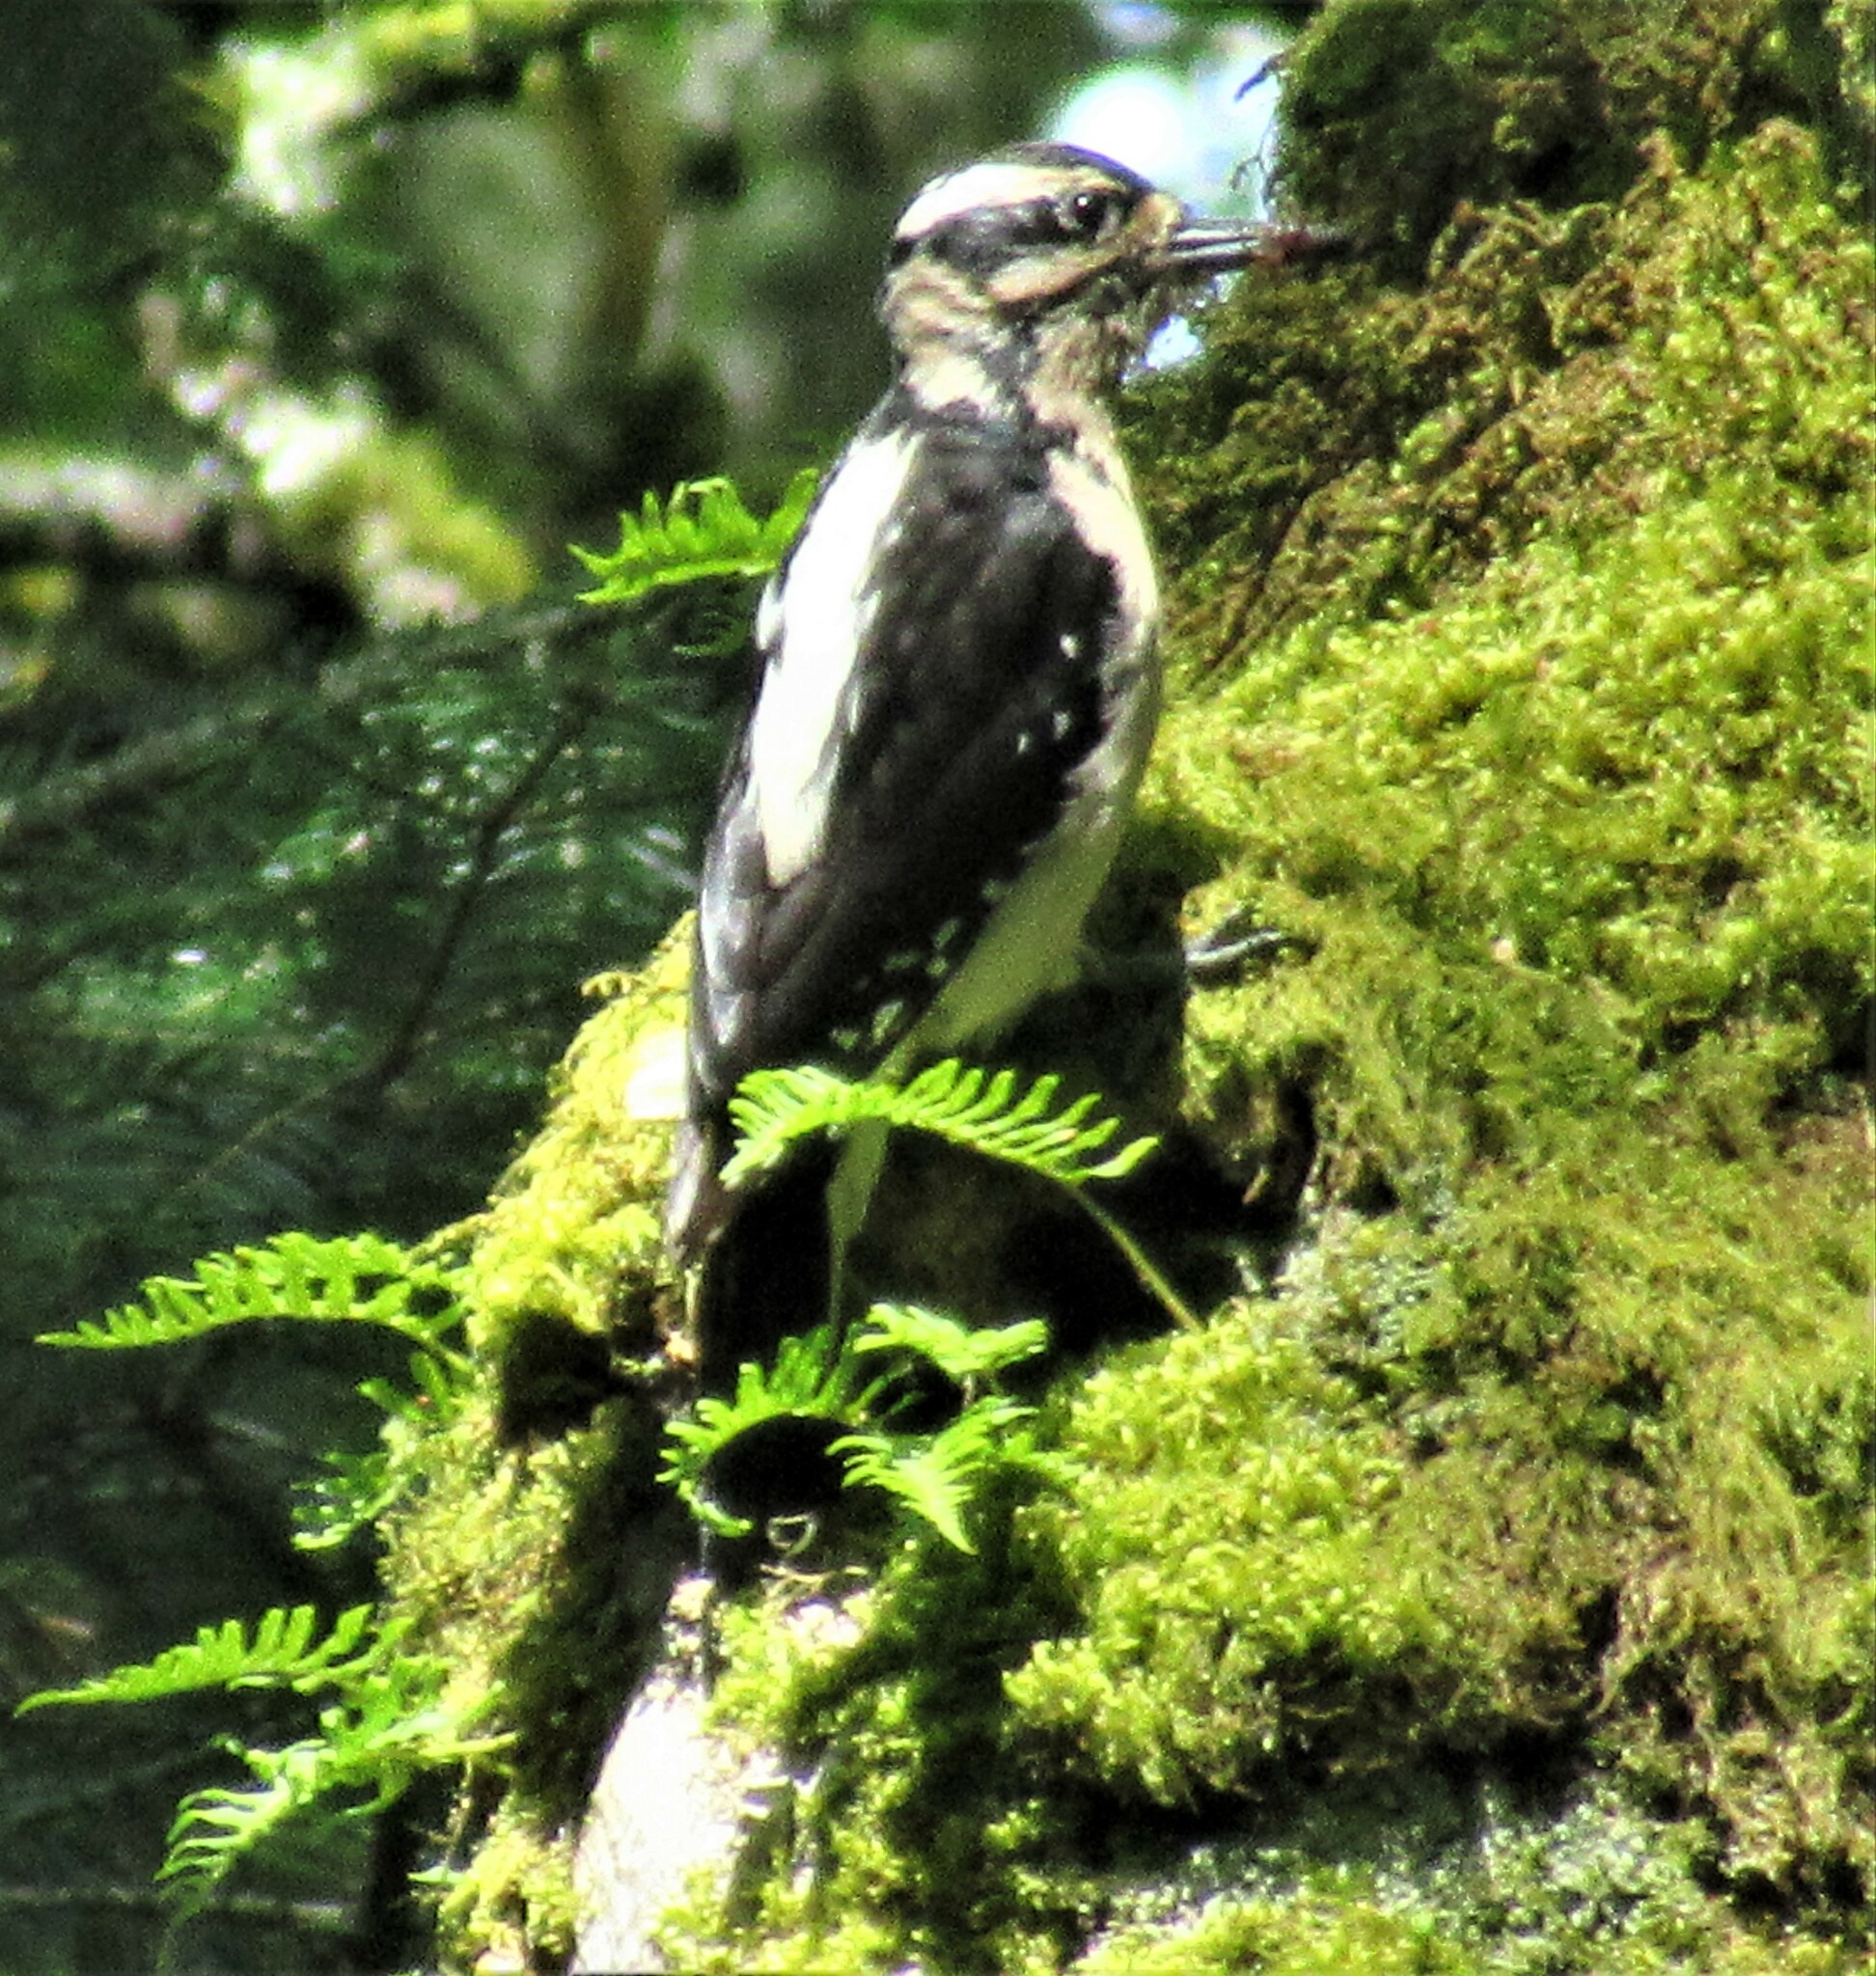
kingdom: Animalia
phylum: Chordata
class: Aves
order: Piciformes
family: Picidae
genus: Leuconotopicus
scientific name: Leuconotopicus villosus
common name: Hairy woodpecker
